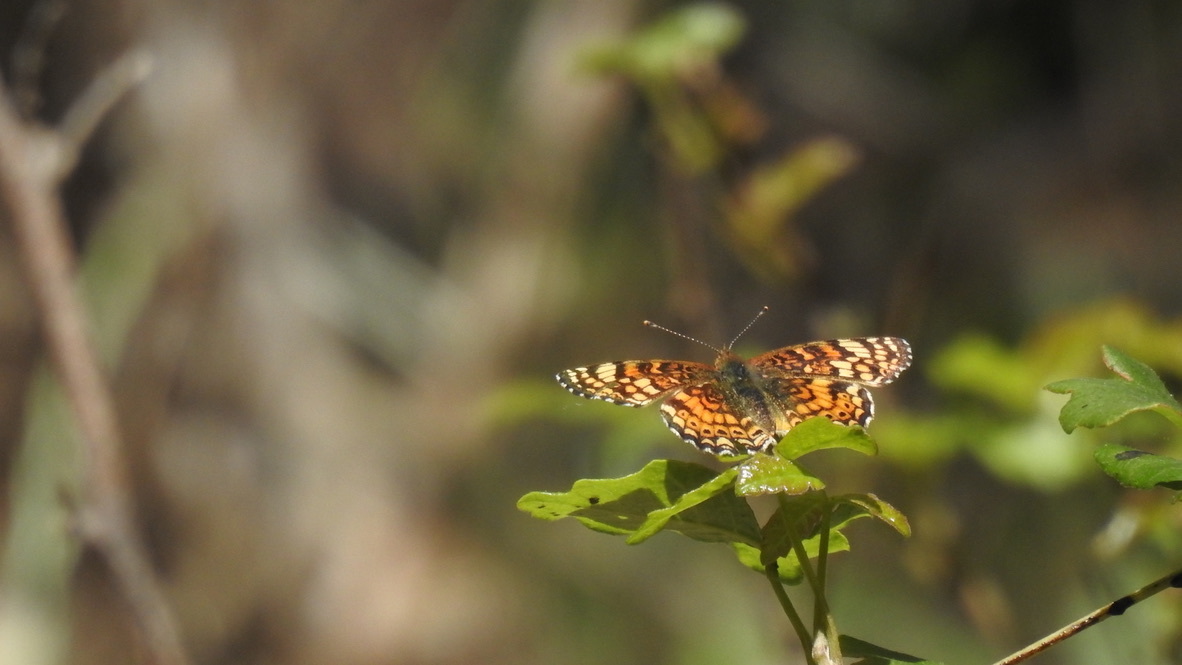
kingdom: Animalia
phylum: Arthropoda
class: Insecta
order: Lepidoptera
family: Nymphalidae
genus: Eresia
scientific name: Eresia aveyrona
